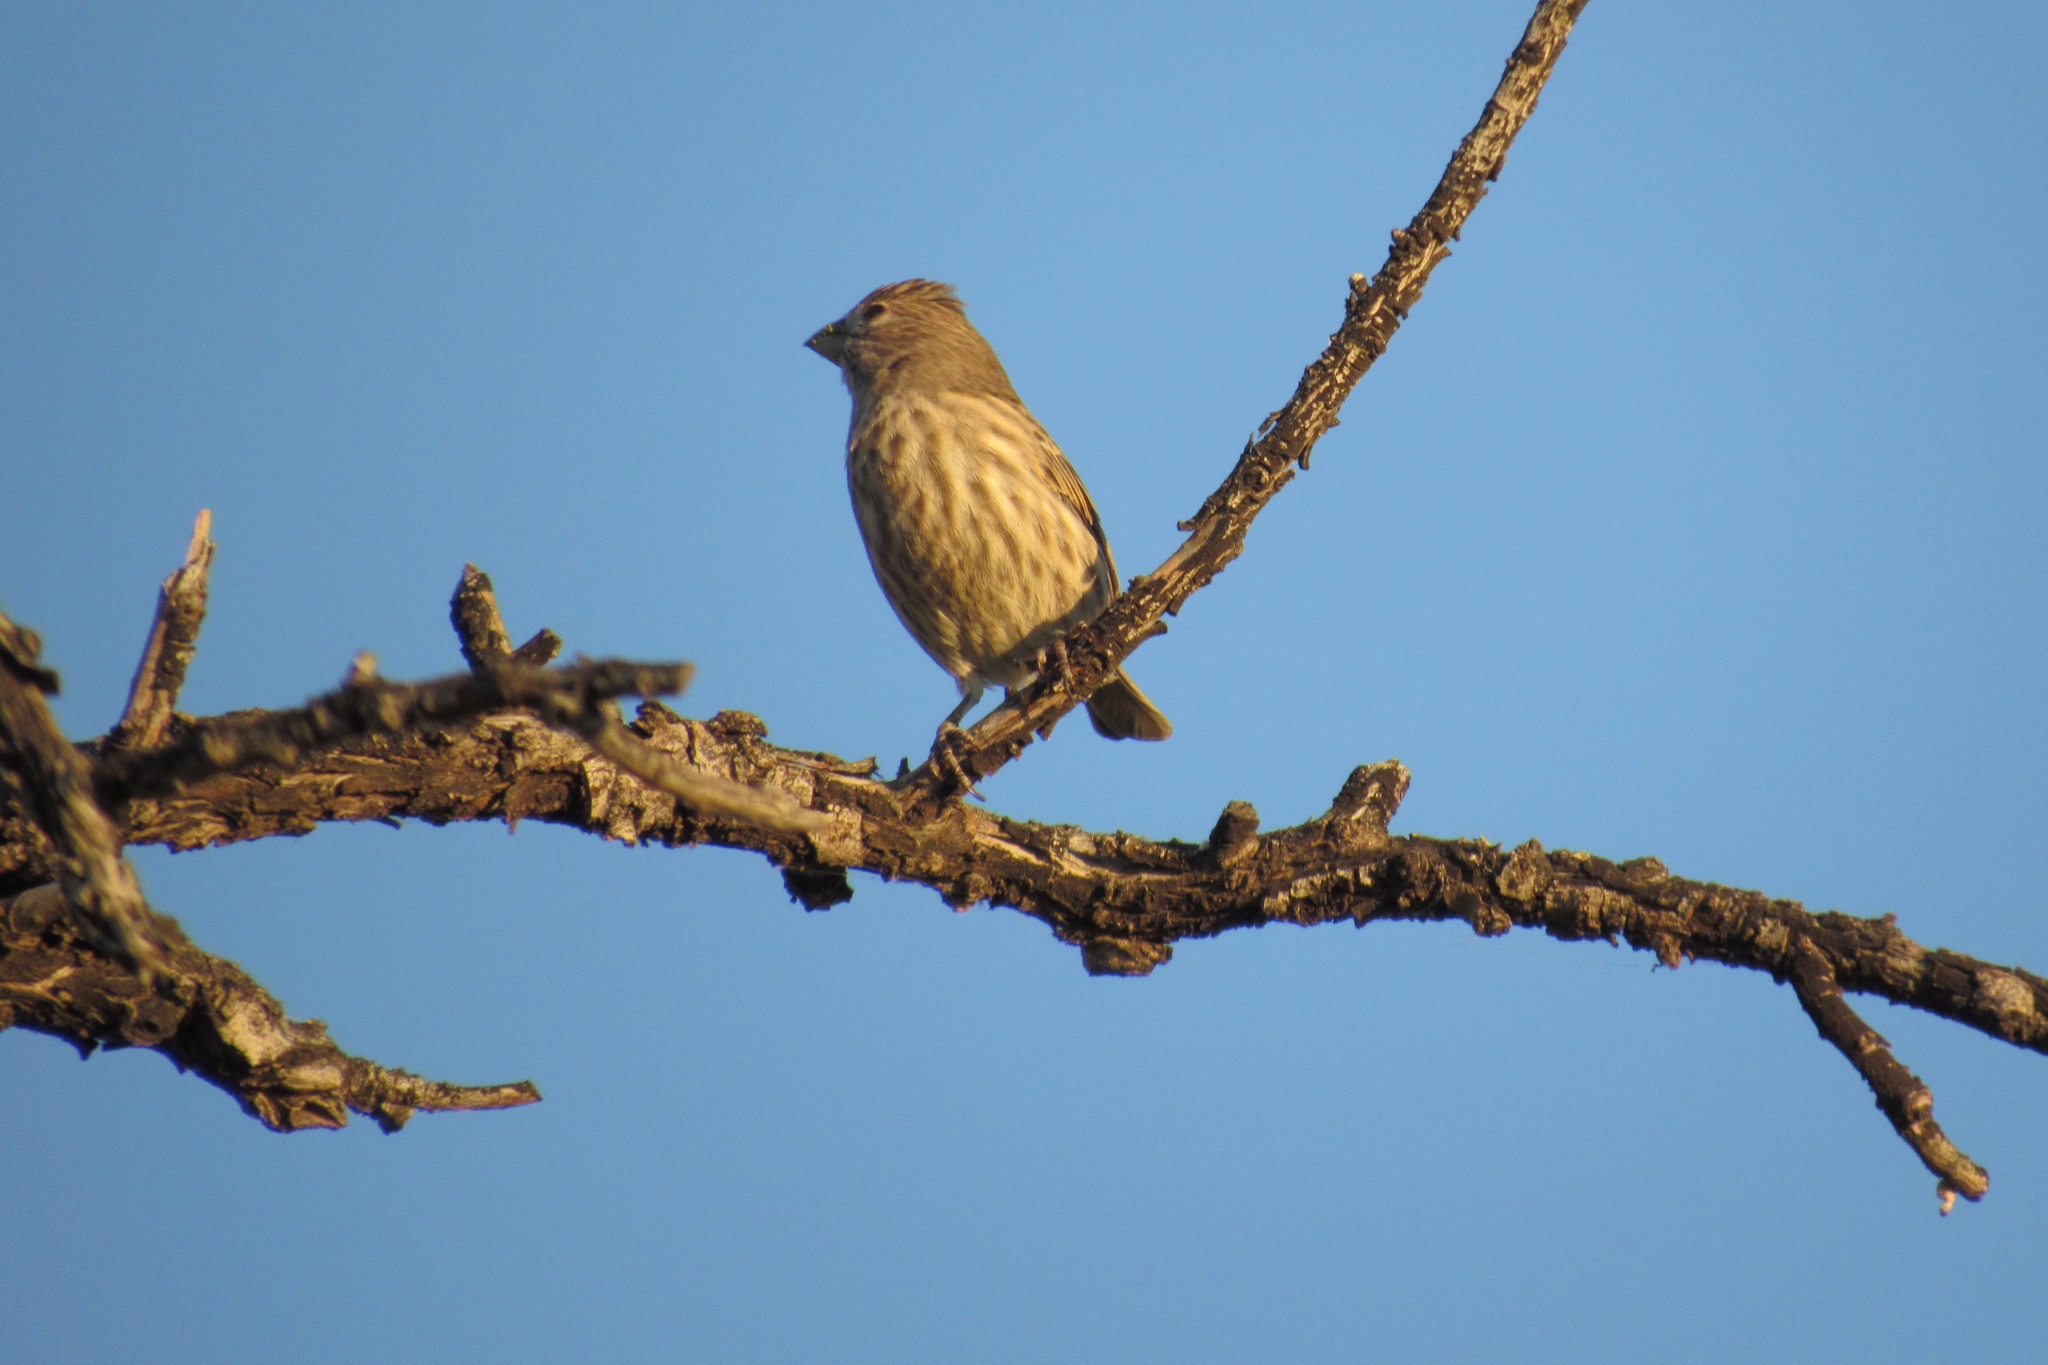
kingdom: Animalia
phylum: Chordata
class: Aves
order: Passeriformes
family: Fringillidae
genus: Haemorhous
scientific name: Haemorhous mexicanus
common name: House finch
